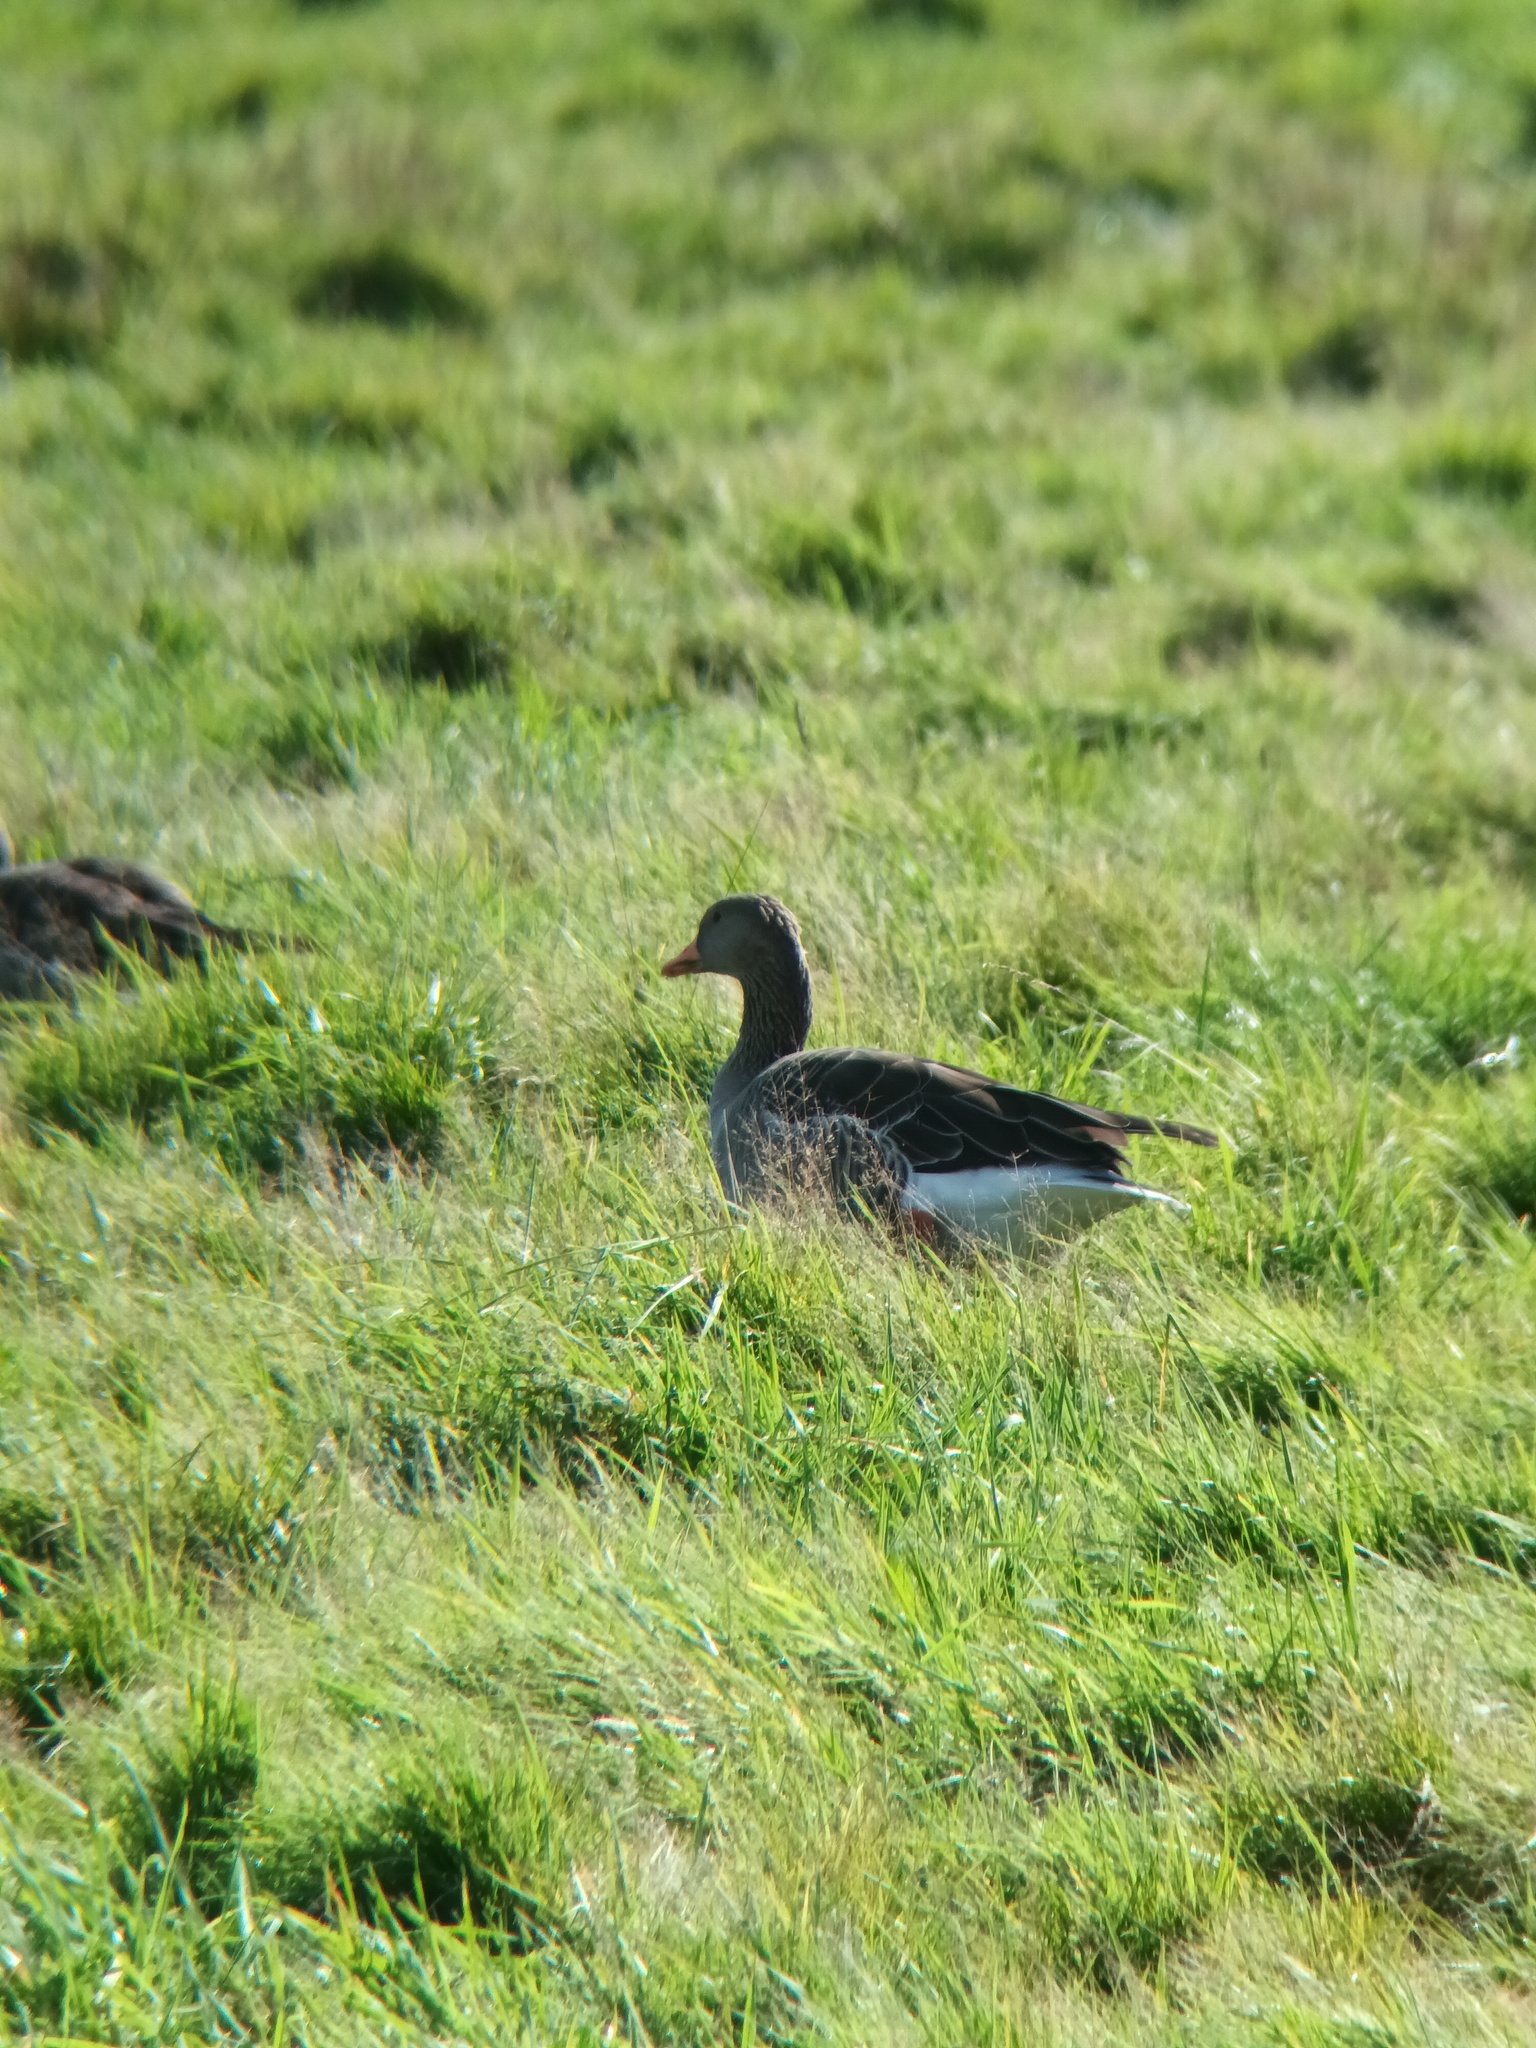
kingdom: Animalia
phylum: Chordata
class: Aves
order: Anseriformes
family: Anatidae
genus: Anser
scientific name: Anser anser
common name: Greylag goose
